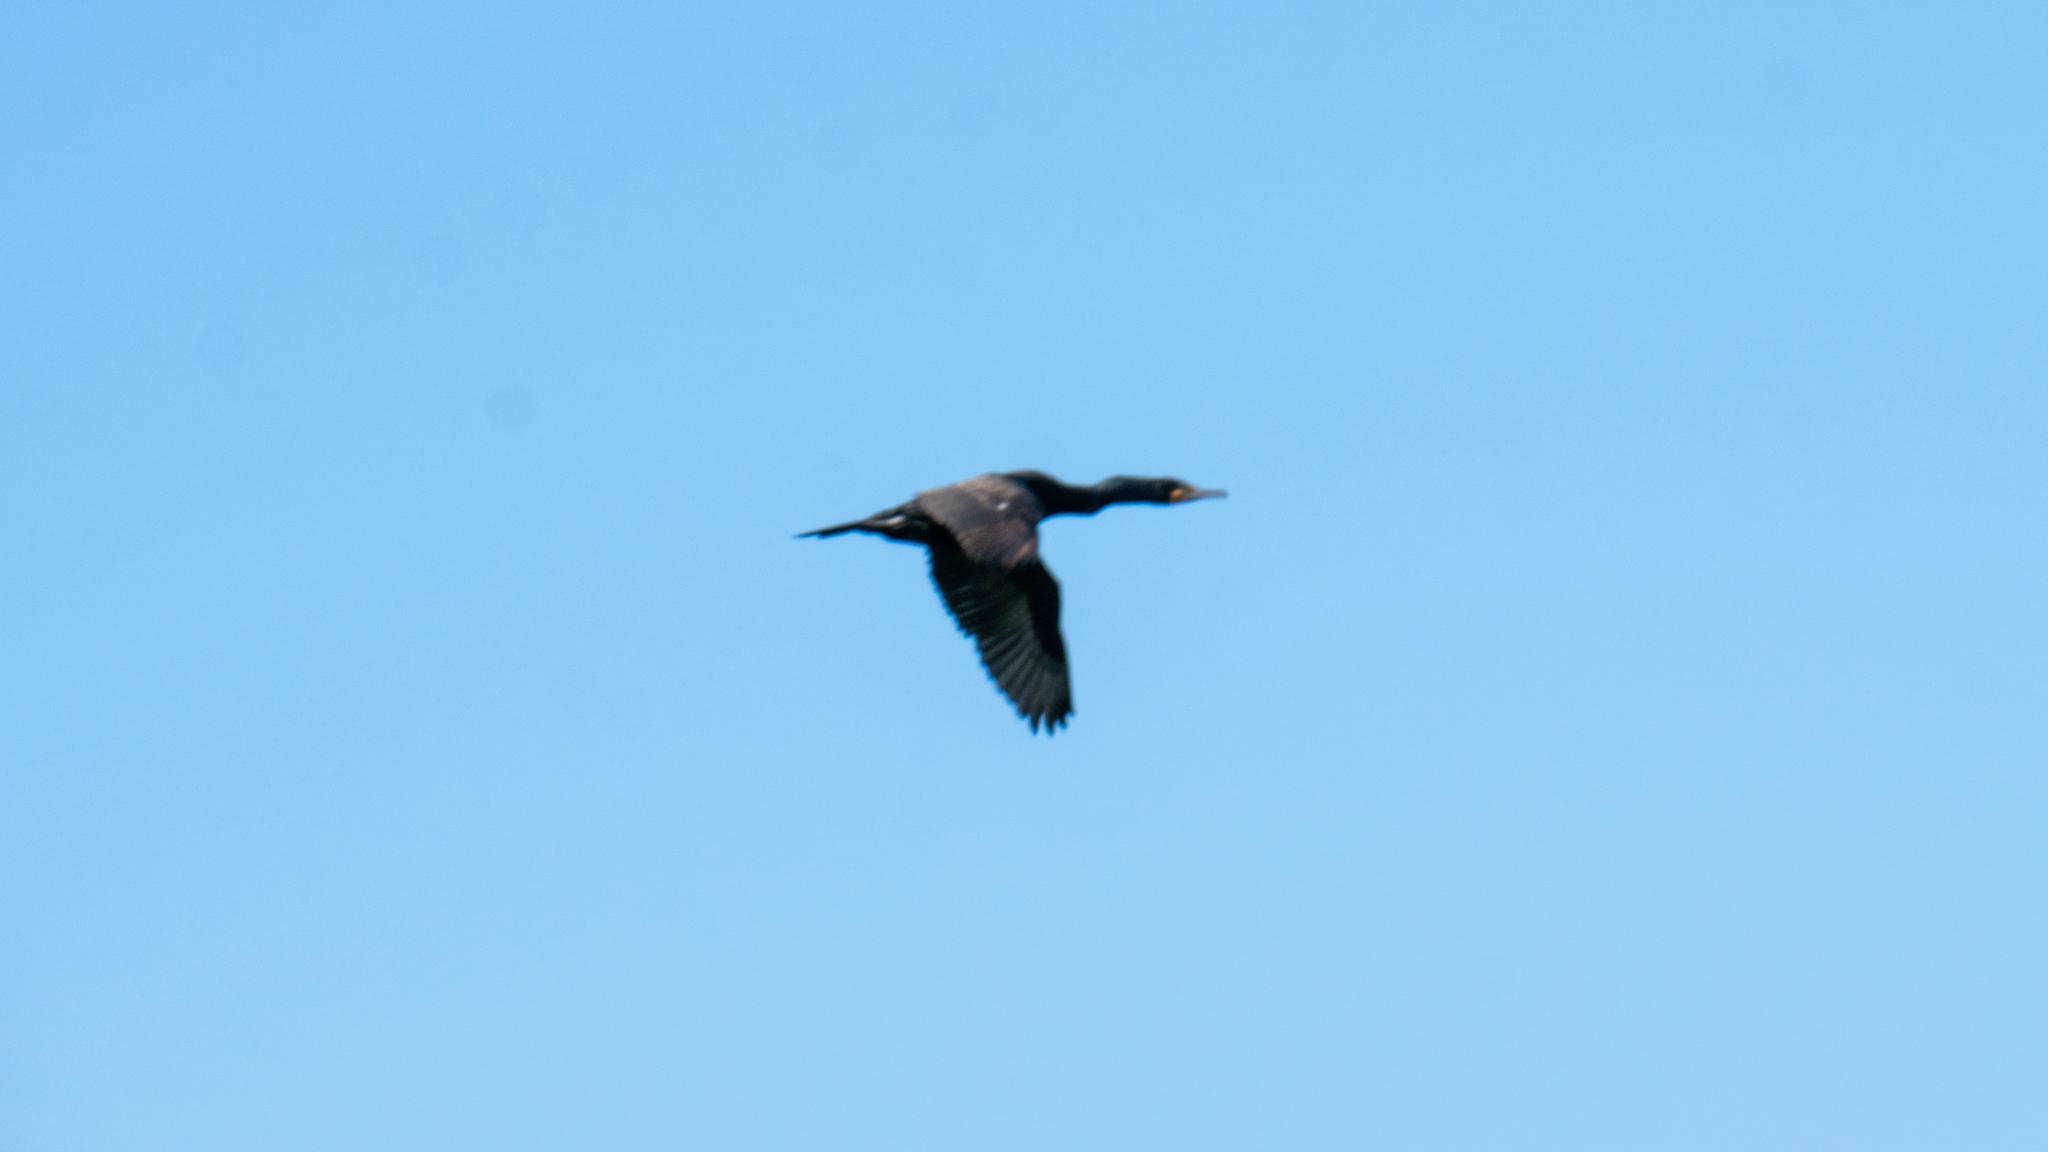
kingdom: Animalia
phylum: Chordata
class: Aves
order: Suliformes
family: Phalacrocoracidae
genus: Phalacrocorax
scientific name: Phalacrocorax auritus
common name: Double-crested cormorant
